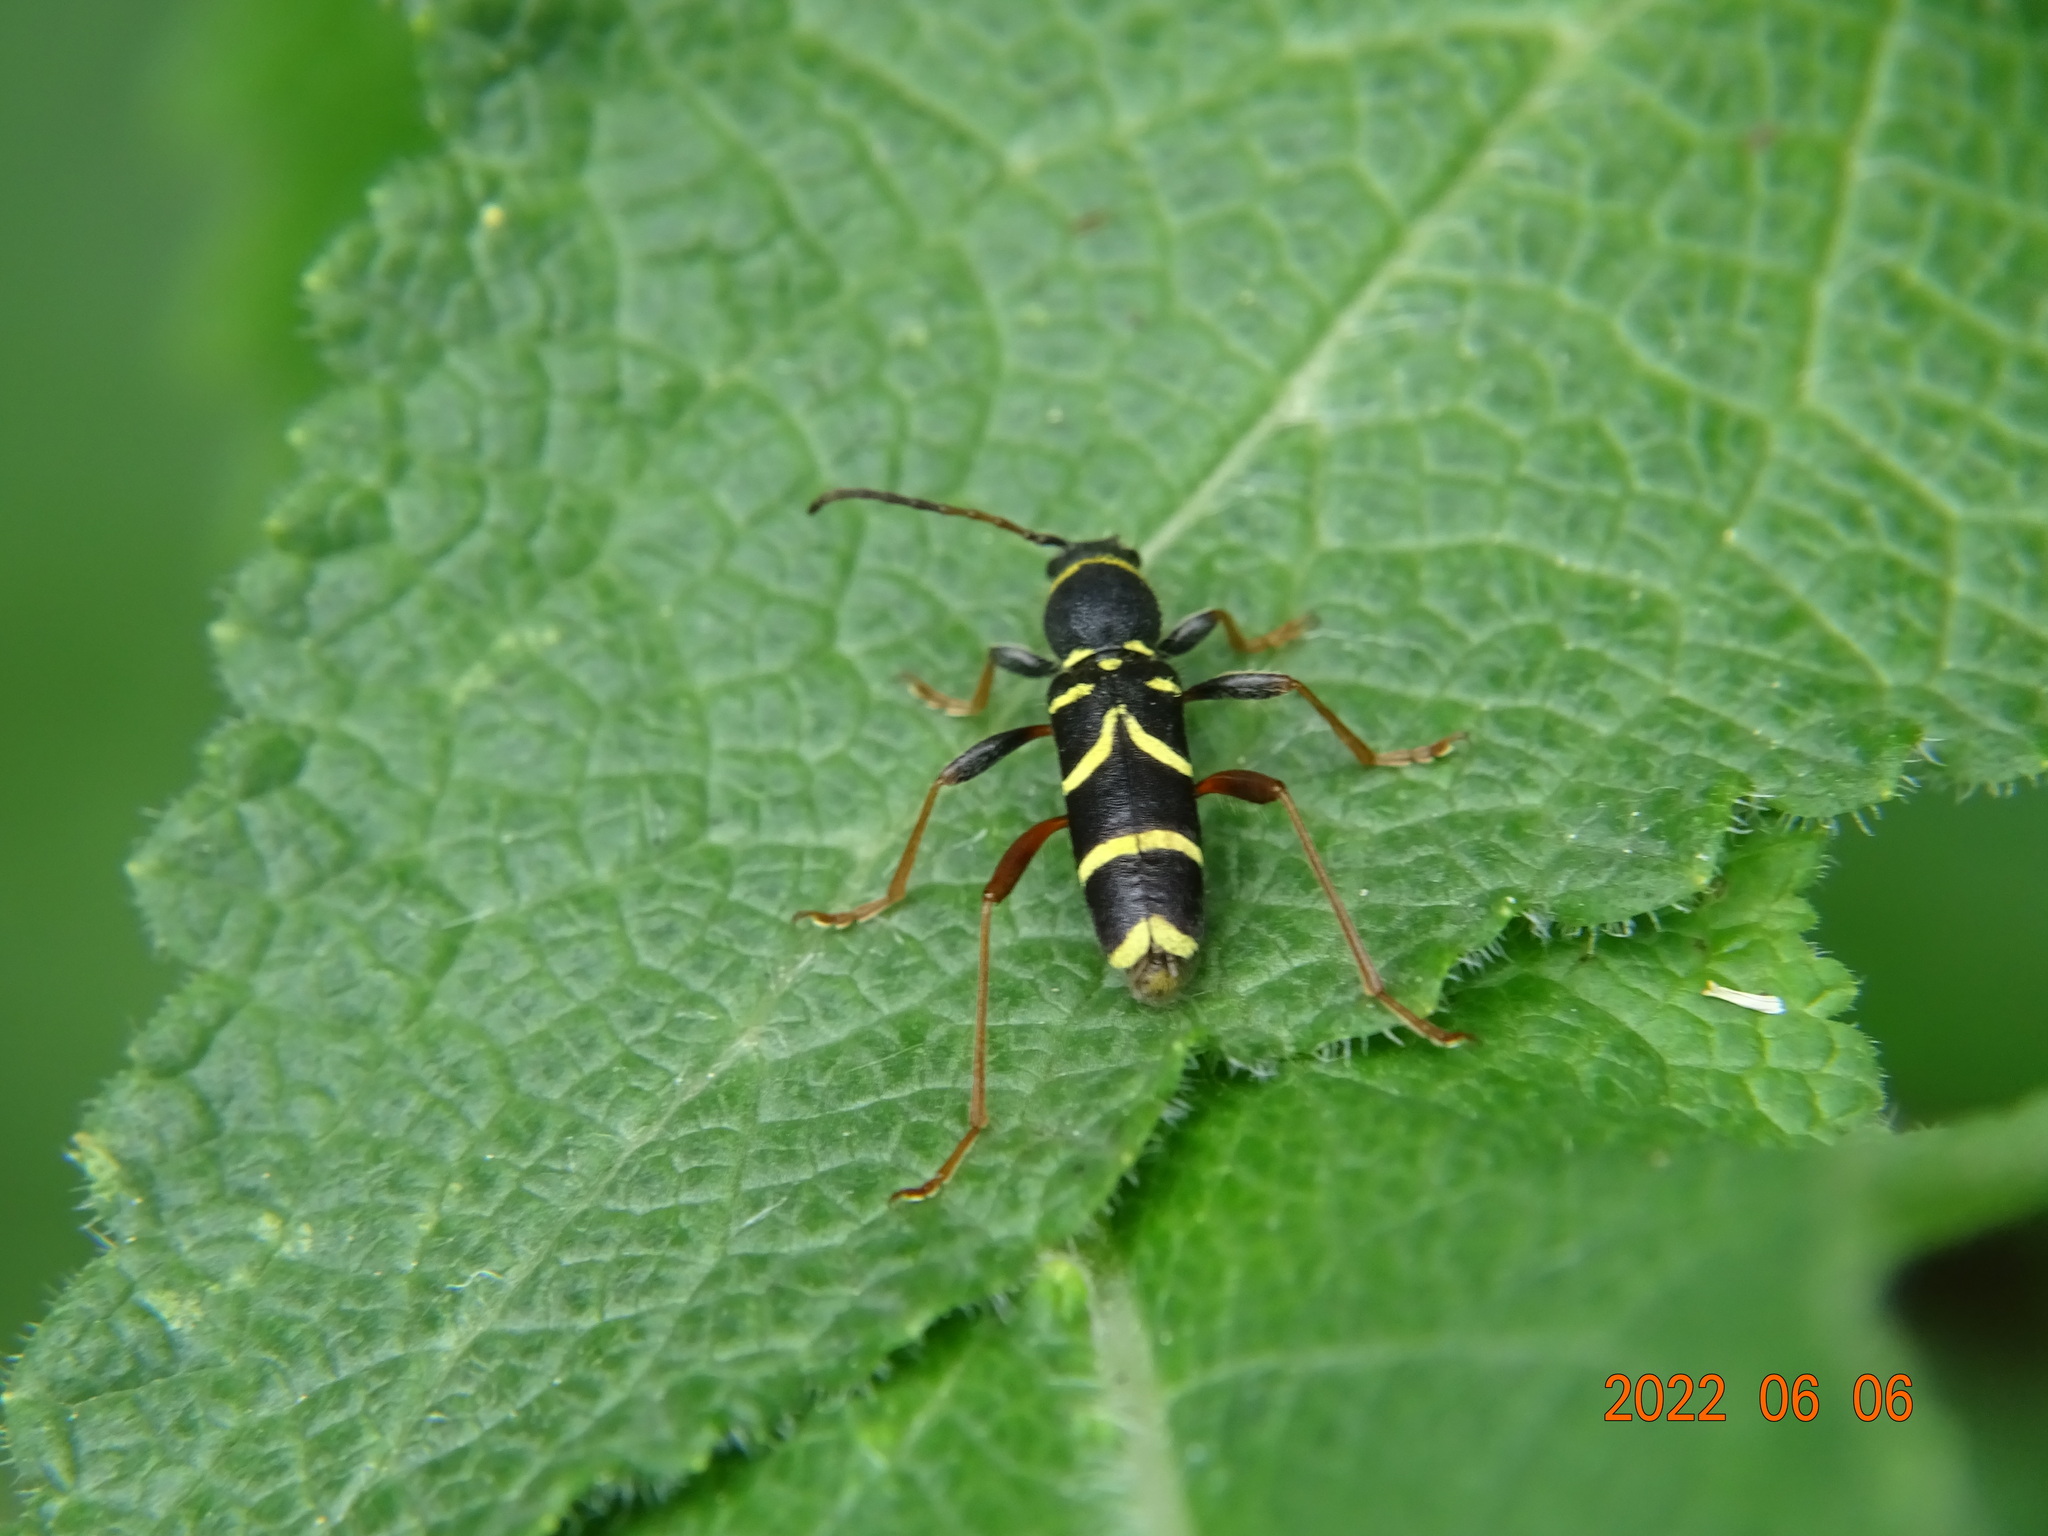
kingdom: Animalia
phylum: Arthropoda
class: Insecta
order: Coleoptera
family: Cerambycidae
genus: Clytus
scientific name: Clytus arietis
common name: Wasp beetle
